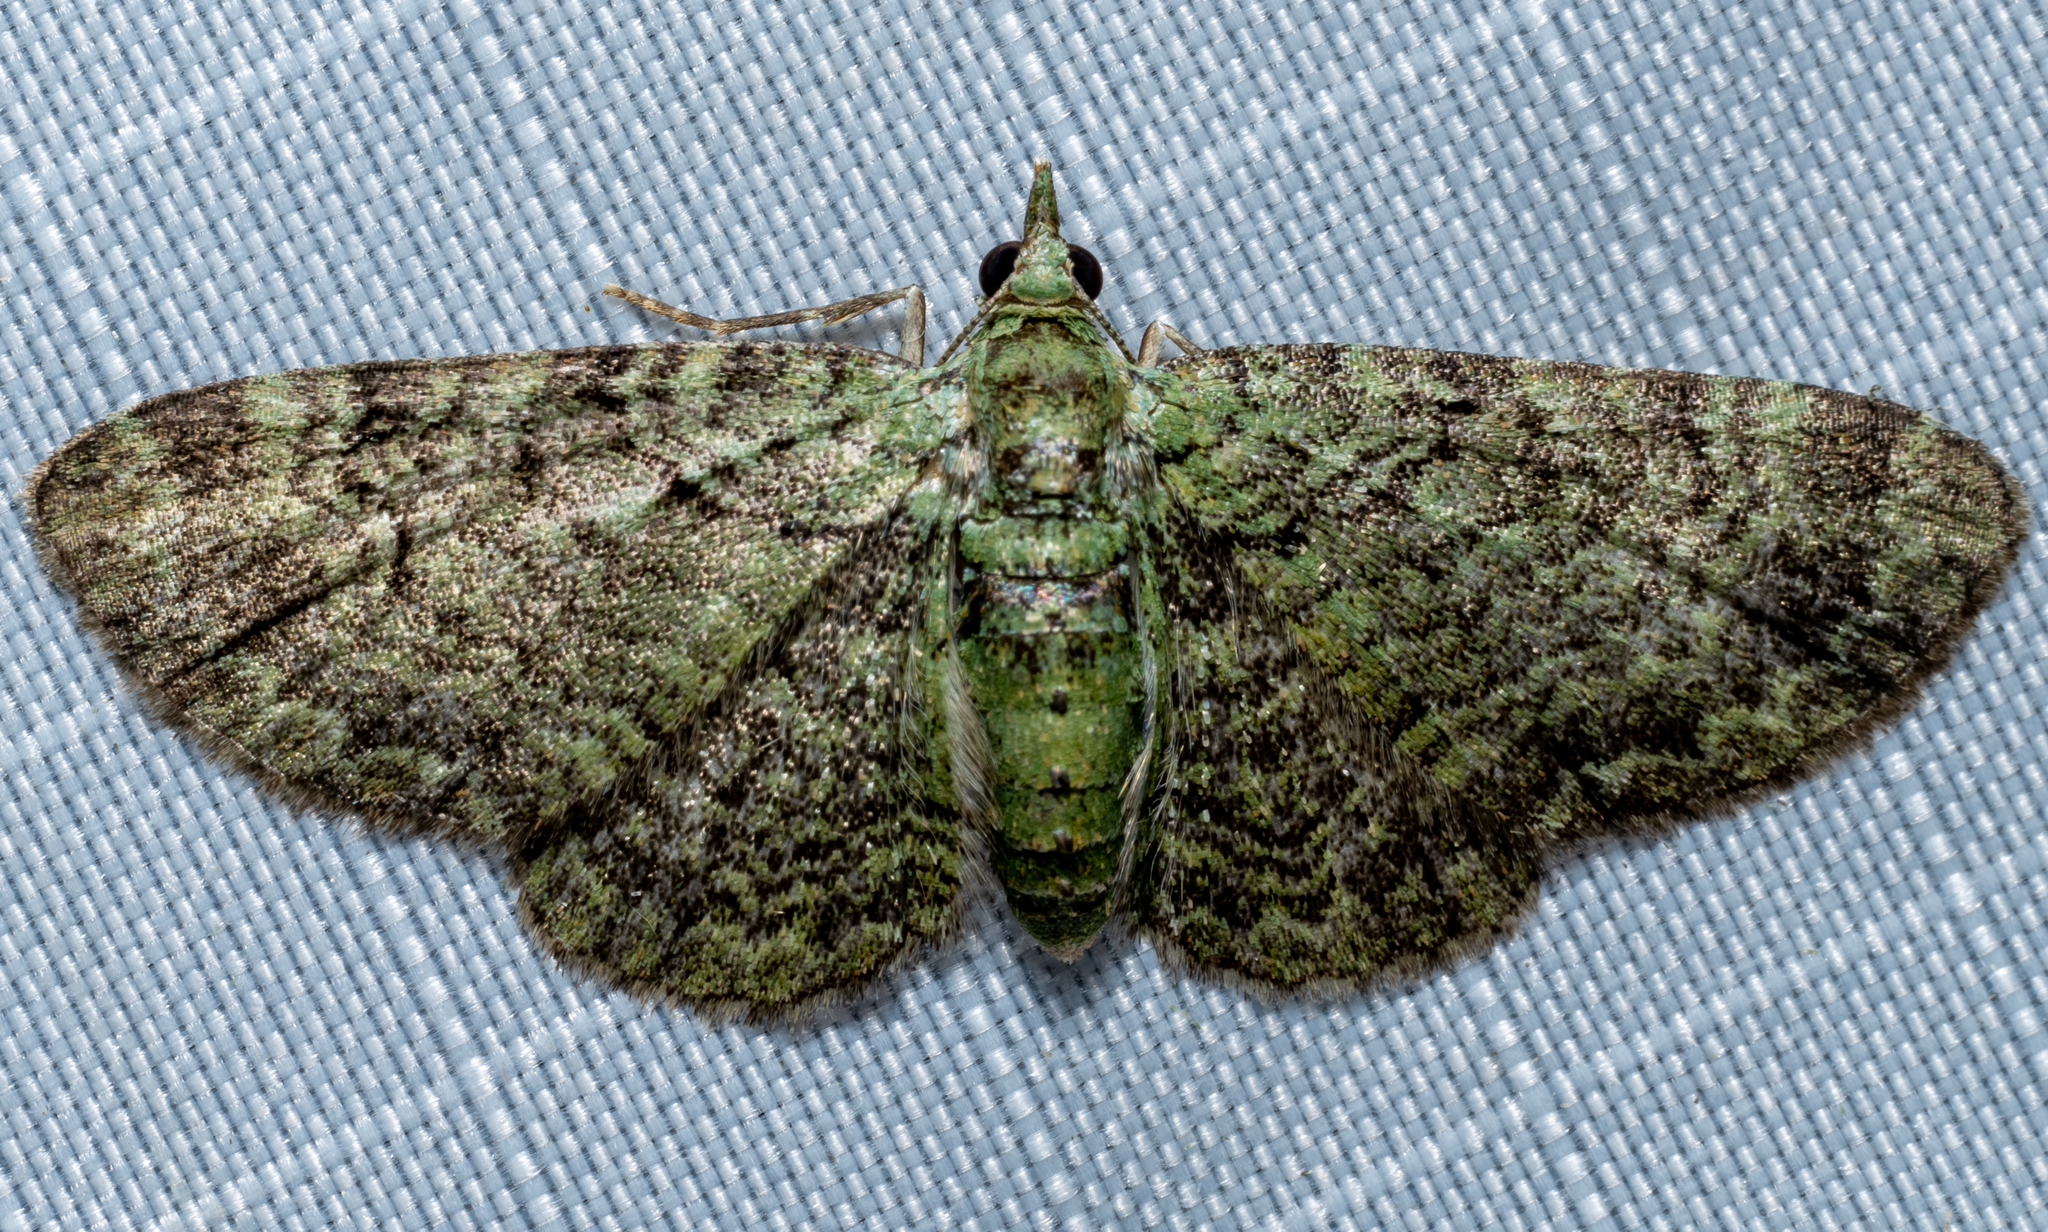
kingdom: Animalia
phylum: Arthropoda
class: Insecta
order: Lepidoptera
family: Geometridae
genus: Pasiphila
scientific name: Pasiphila rectangulata
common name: Green pug
